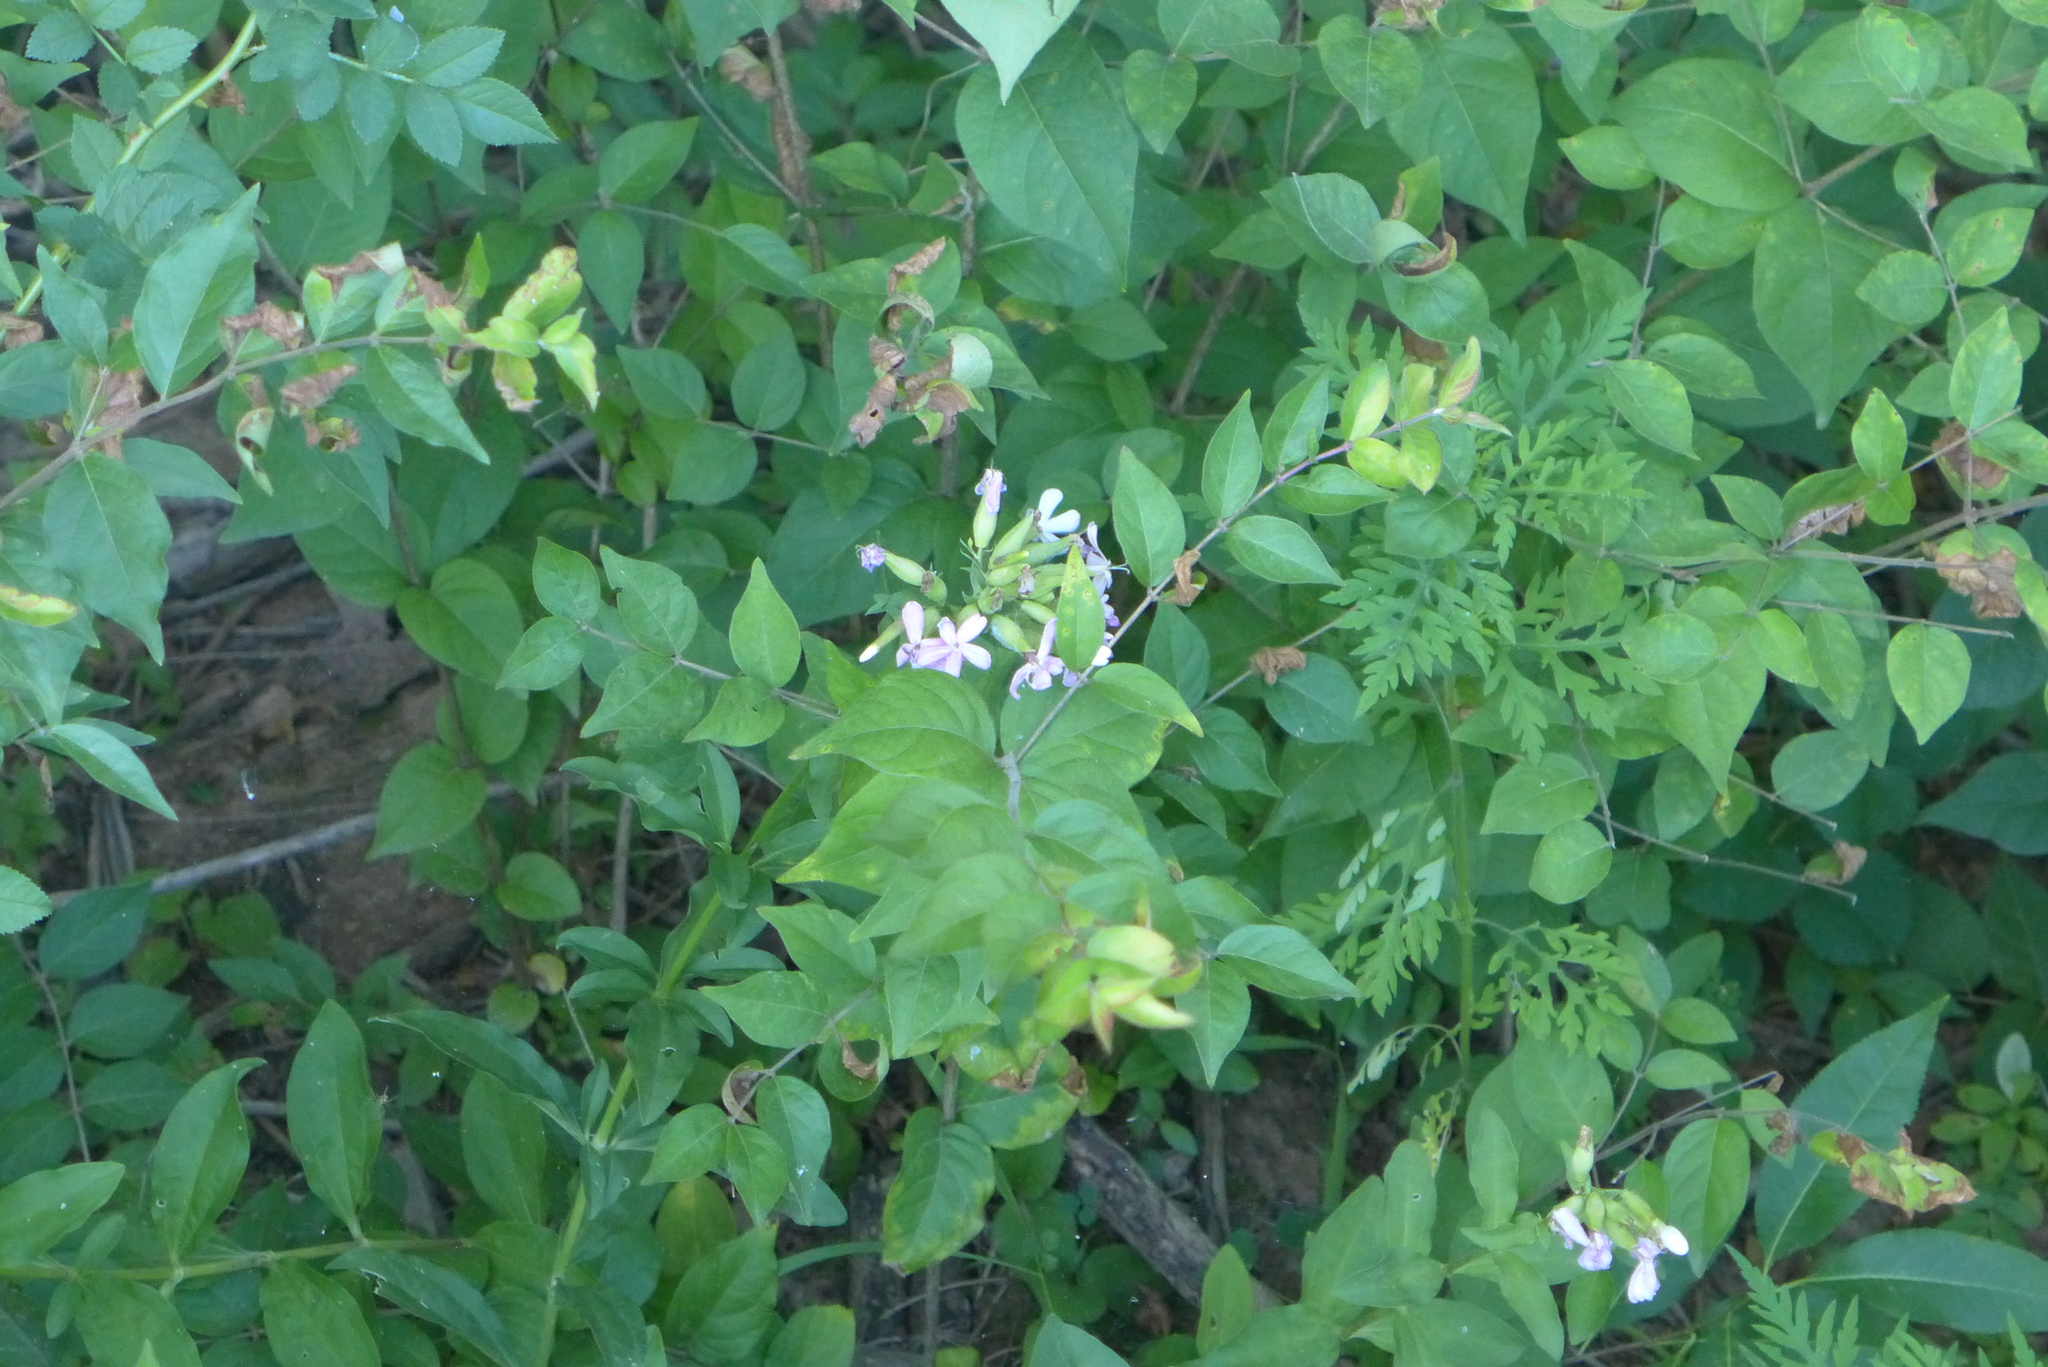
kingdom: Plantae
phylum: Tracheophyta
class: Magnoliopsida
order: Caryophyllales
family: Caryophyllaceae
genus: Saponaria
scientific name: Saponaria officinalis
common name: Soapwort
